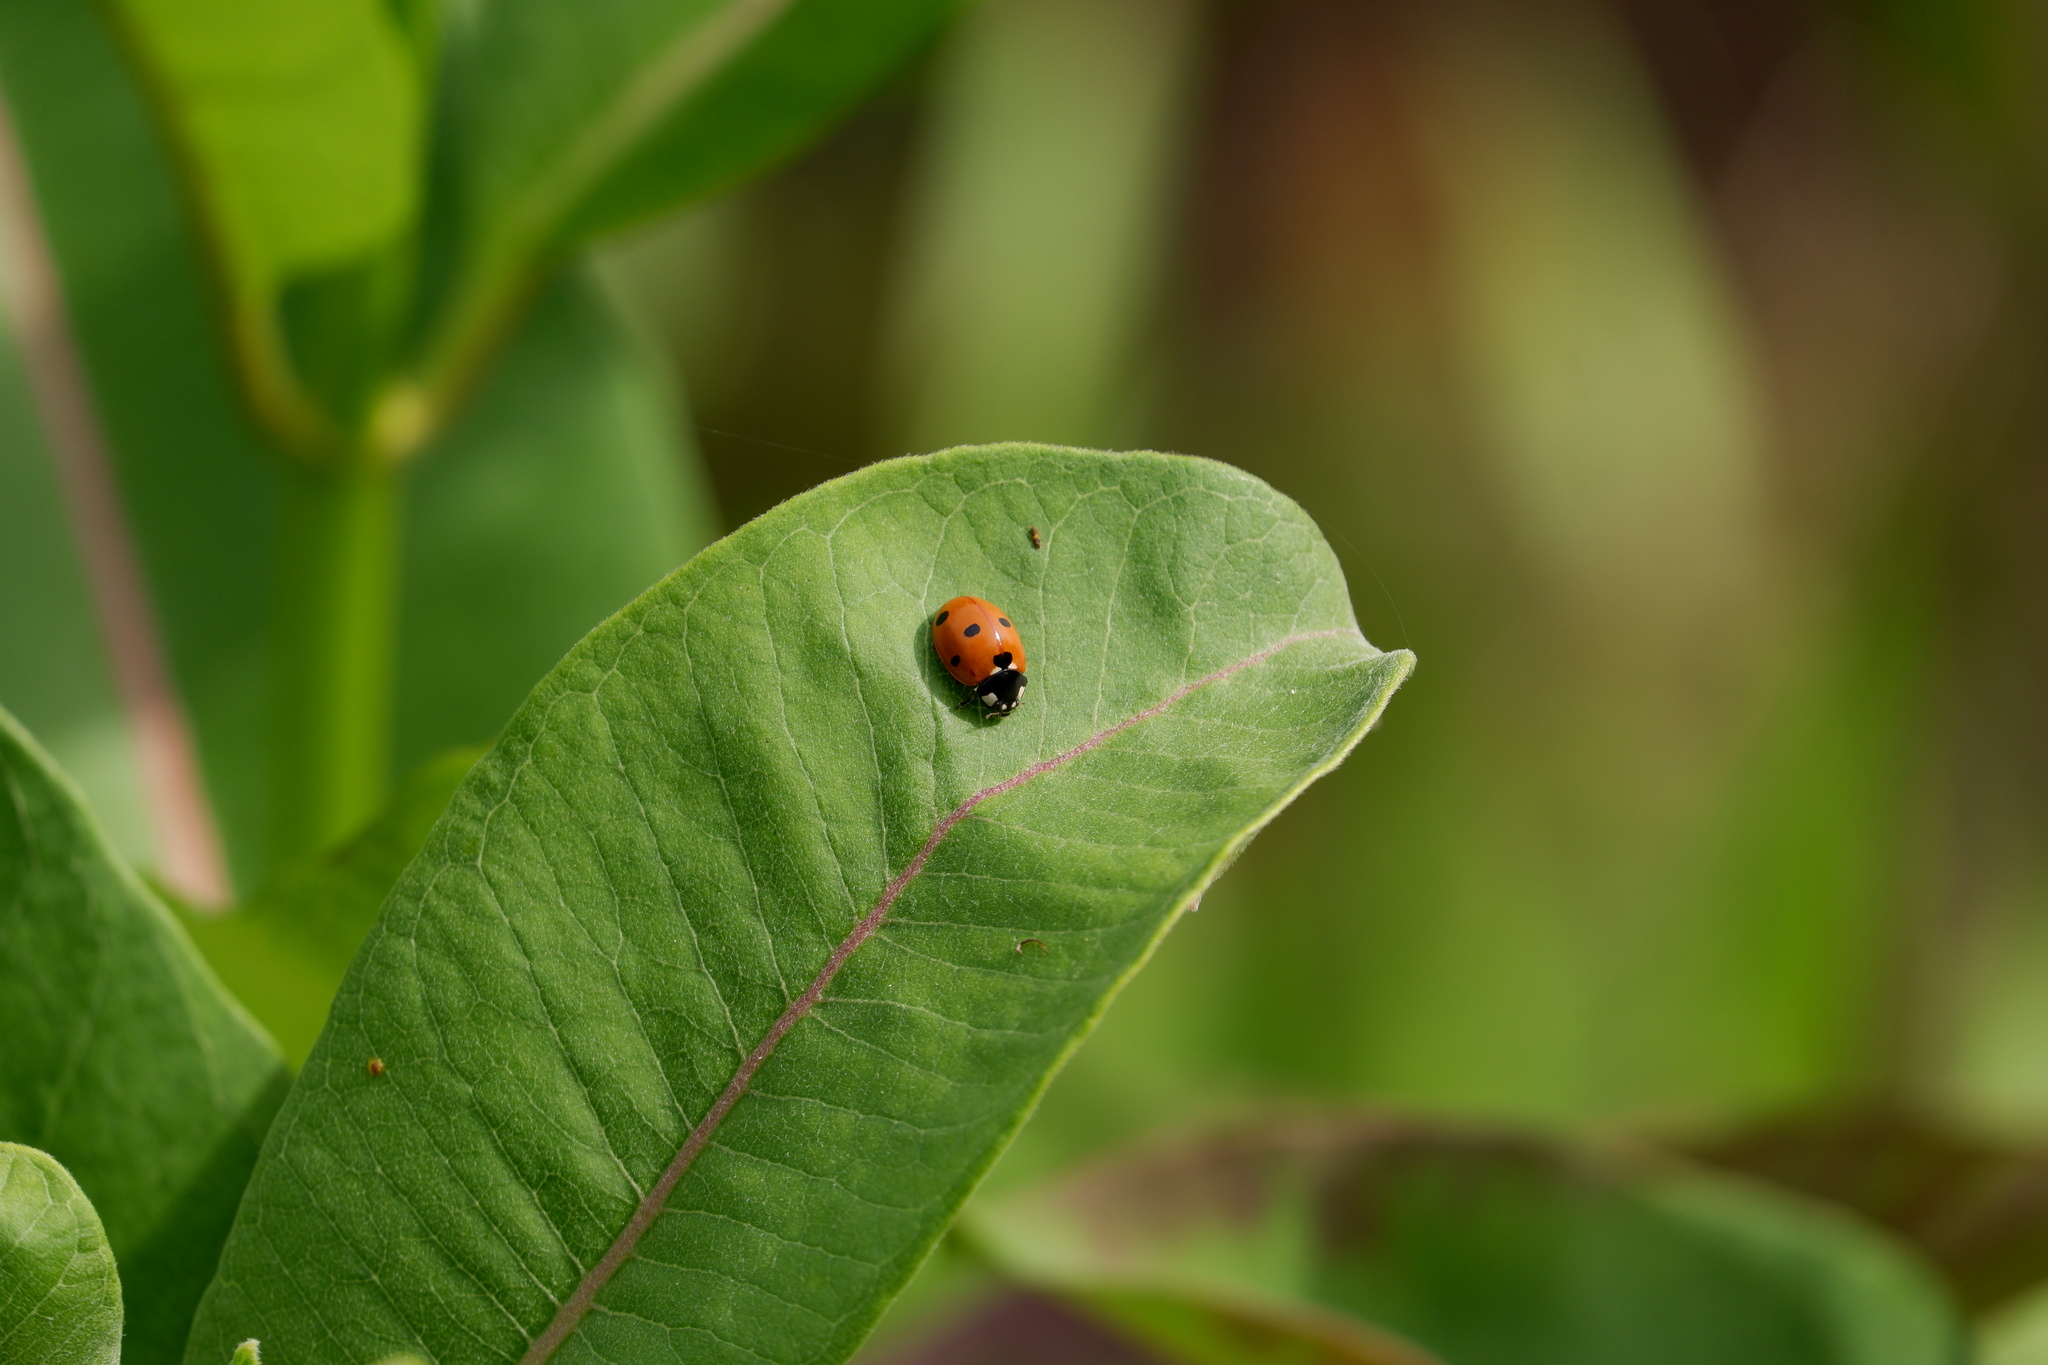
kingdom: Animalia
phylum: Arthropoda
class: Insecta
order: Coleoptera
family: Coccinellidae
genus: Coccinella
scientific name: Coccinella septempunctata
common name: Sevenspotted lady beetle
